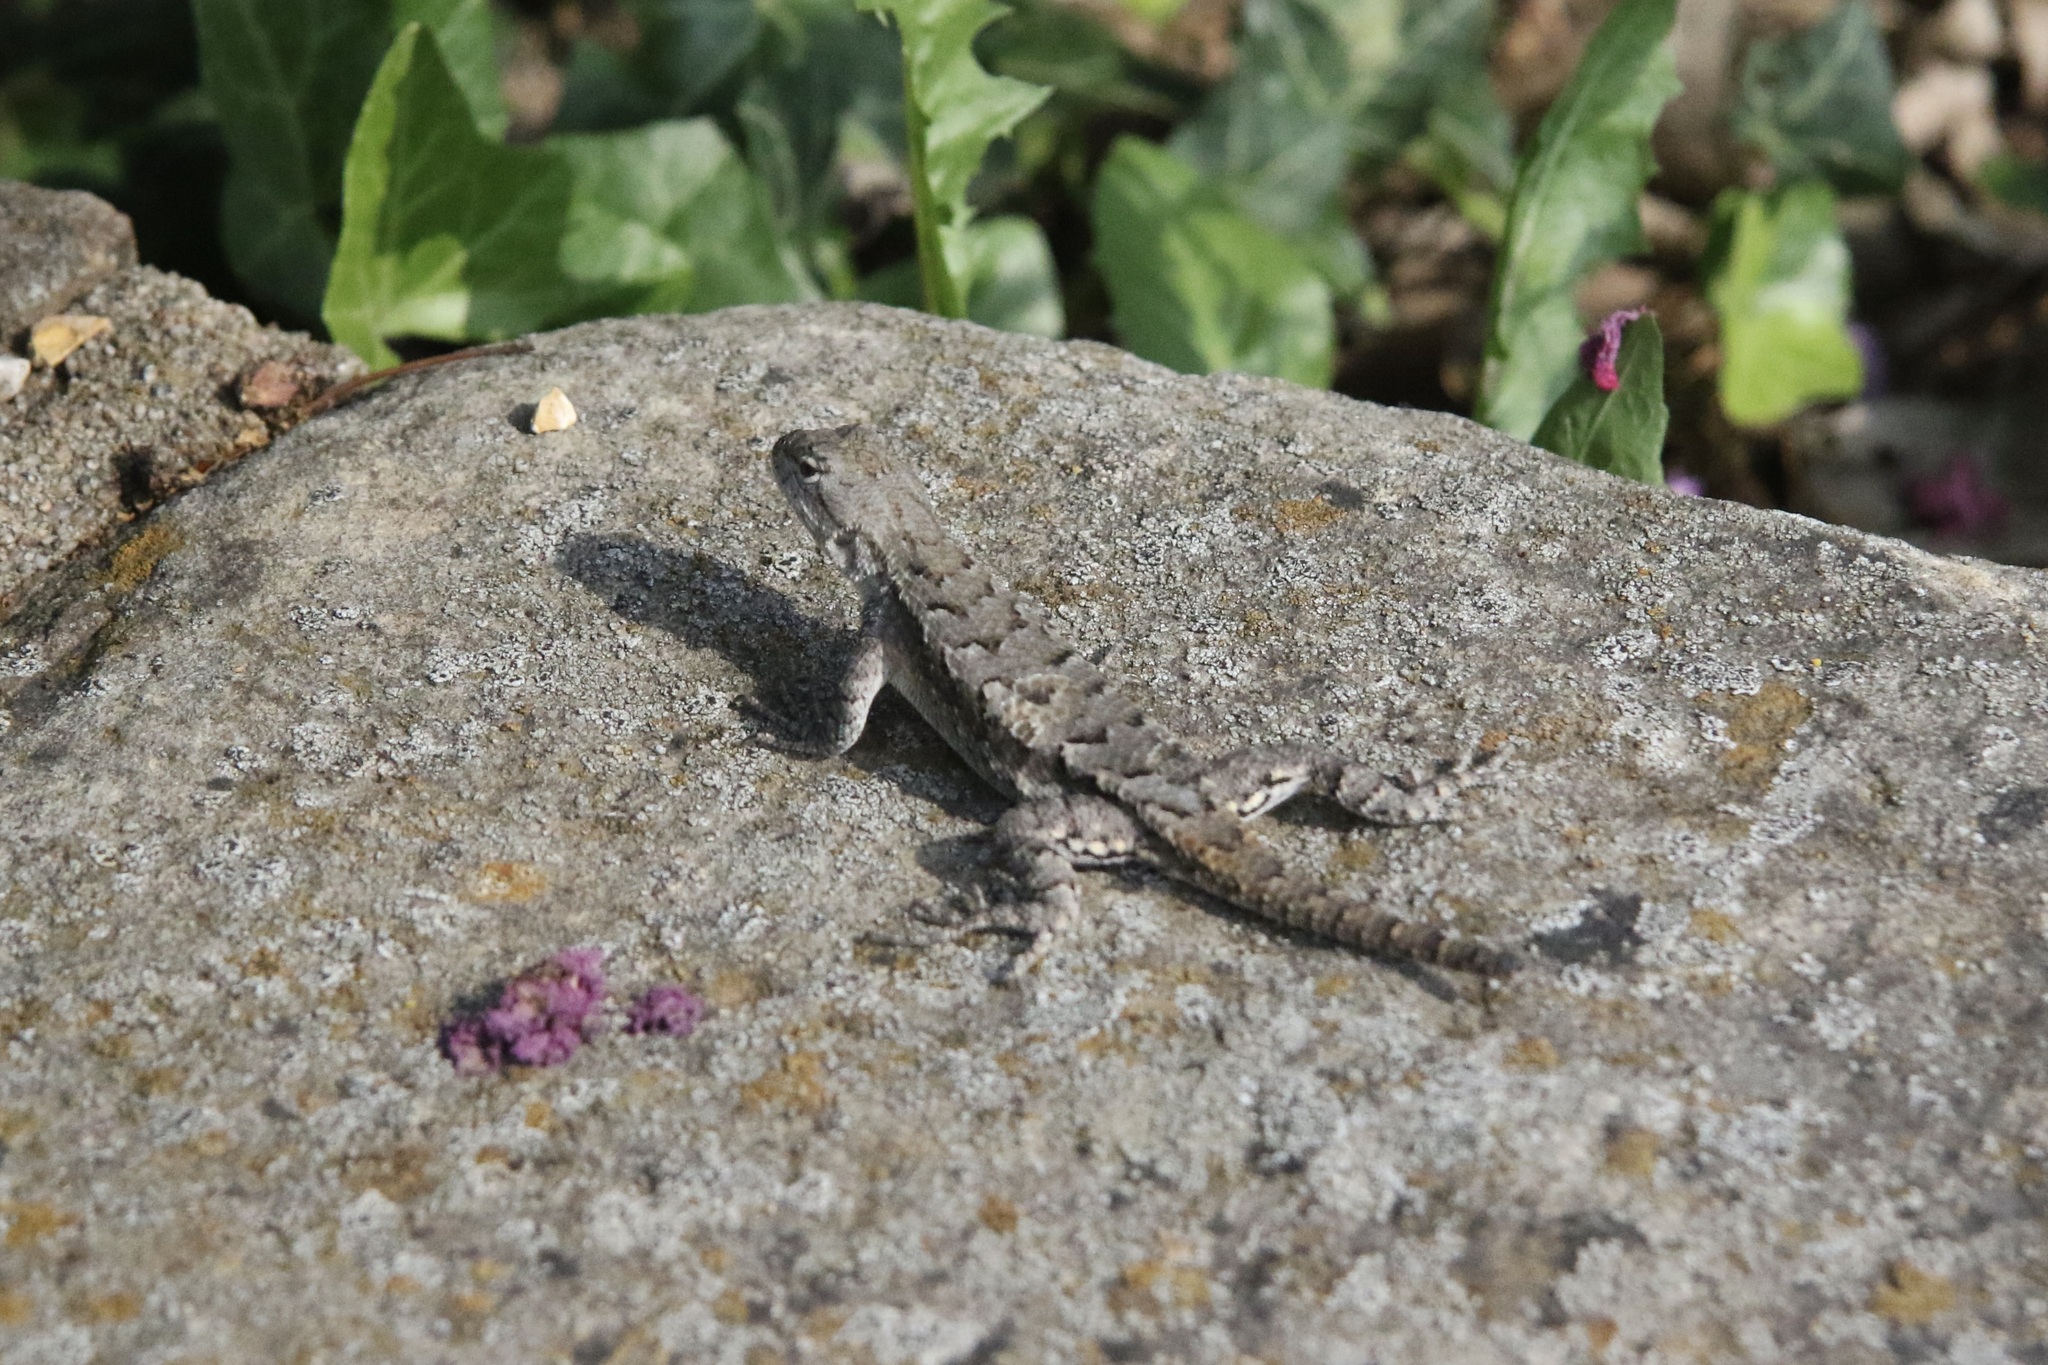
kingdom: Animalia
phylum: Chordata
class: Squamata
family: Phrynosomatidae
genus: Sceloporus
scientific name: Sceloporus consobrinus
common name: Southern prairie lizard
